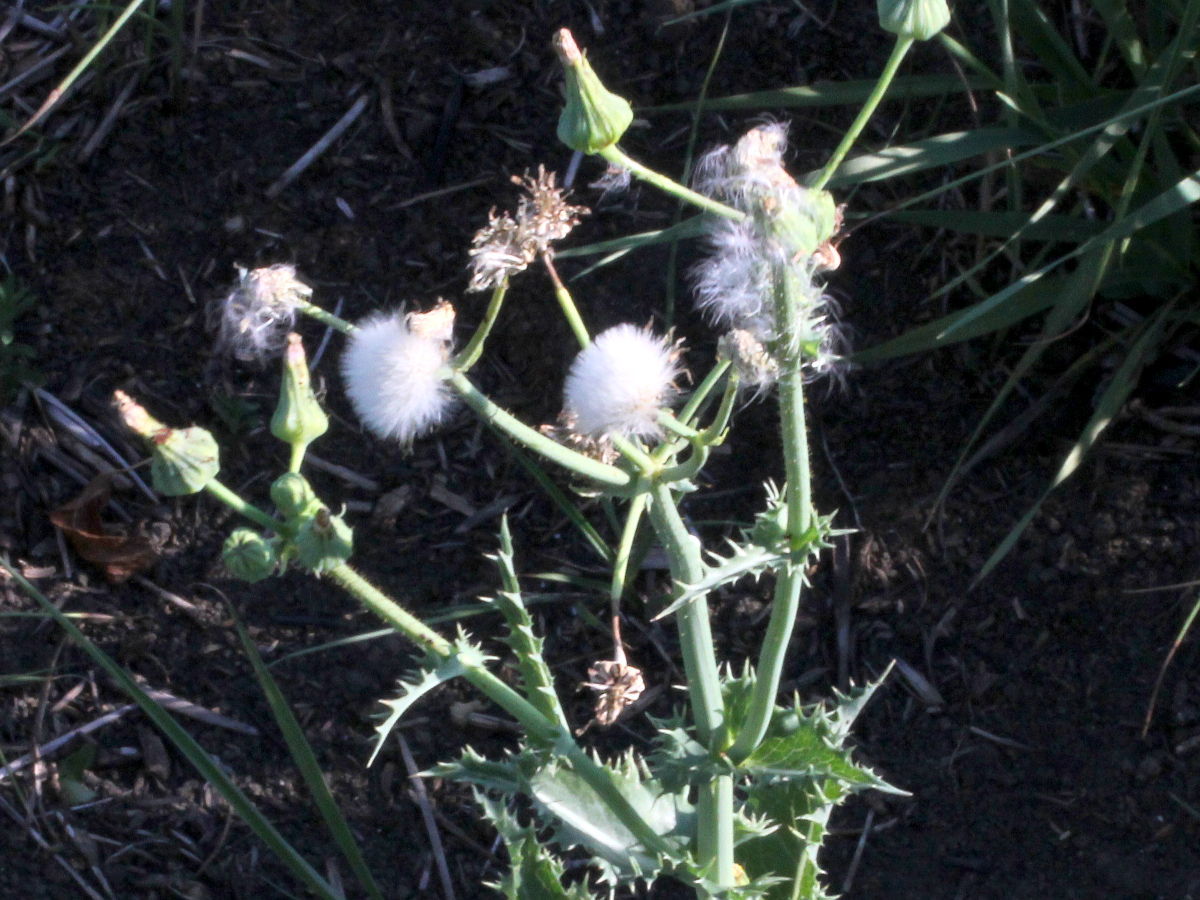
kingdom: Plantae
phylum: Tracheophyta
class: Magnoliopsida
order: Asterales
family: Asteraceae
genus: Sonchus
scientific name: Sonchus asper
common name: Prickly sow-thistle
